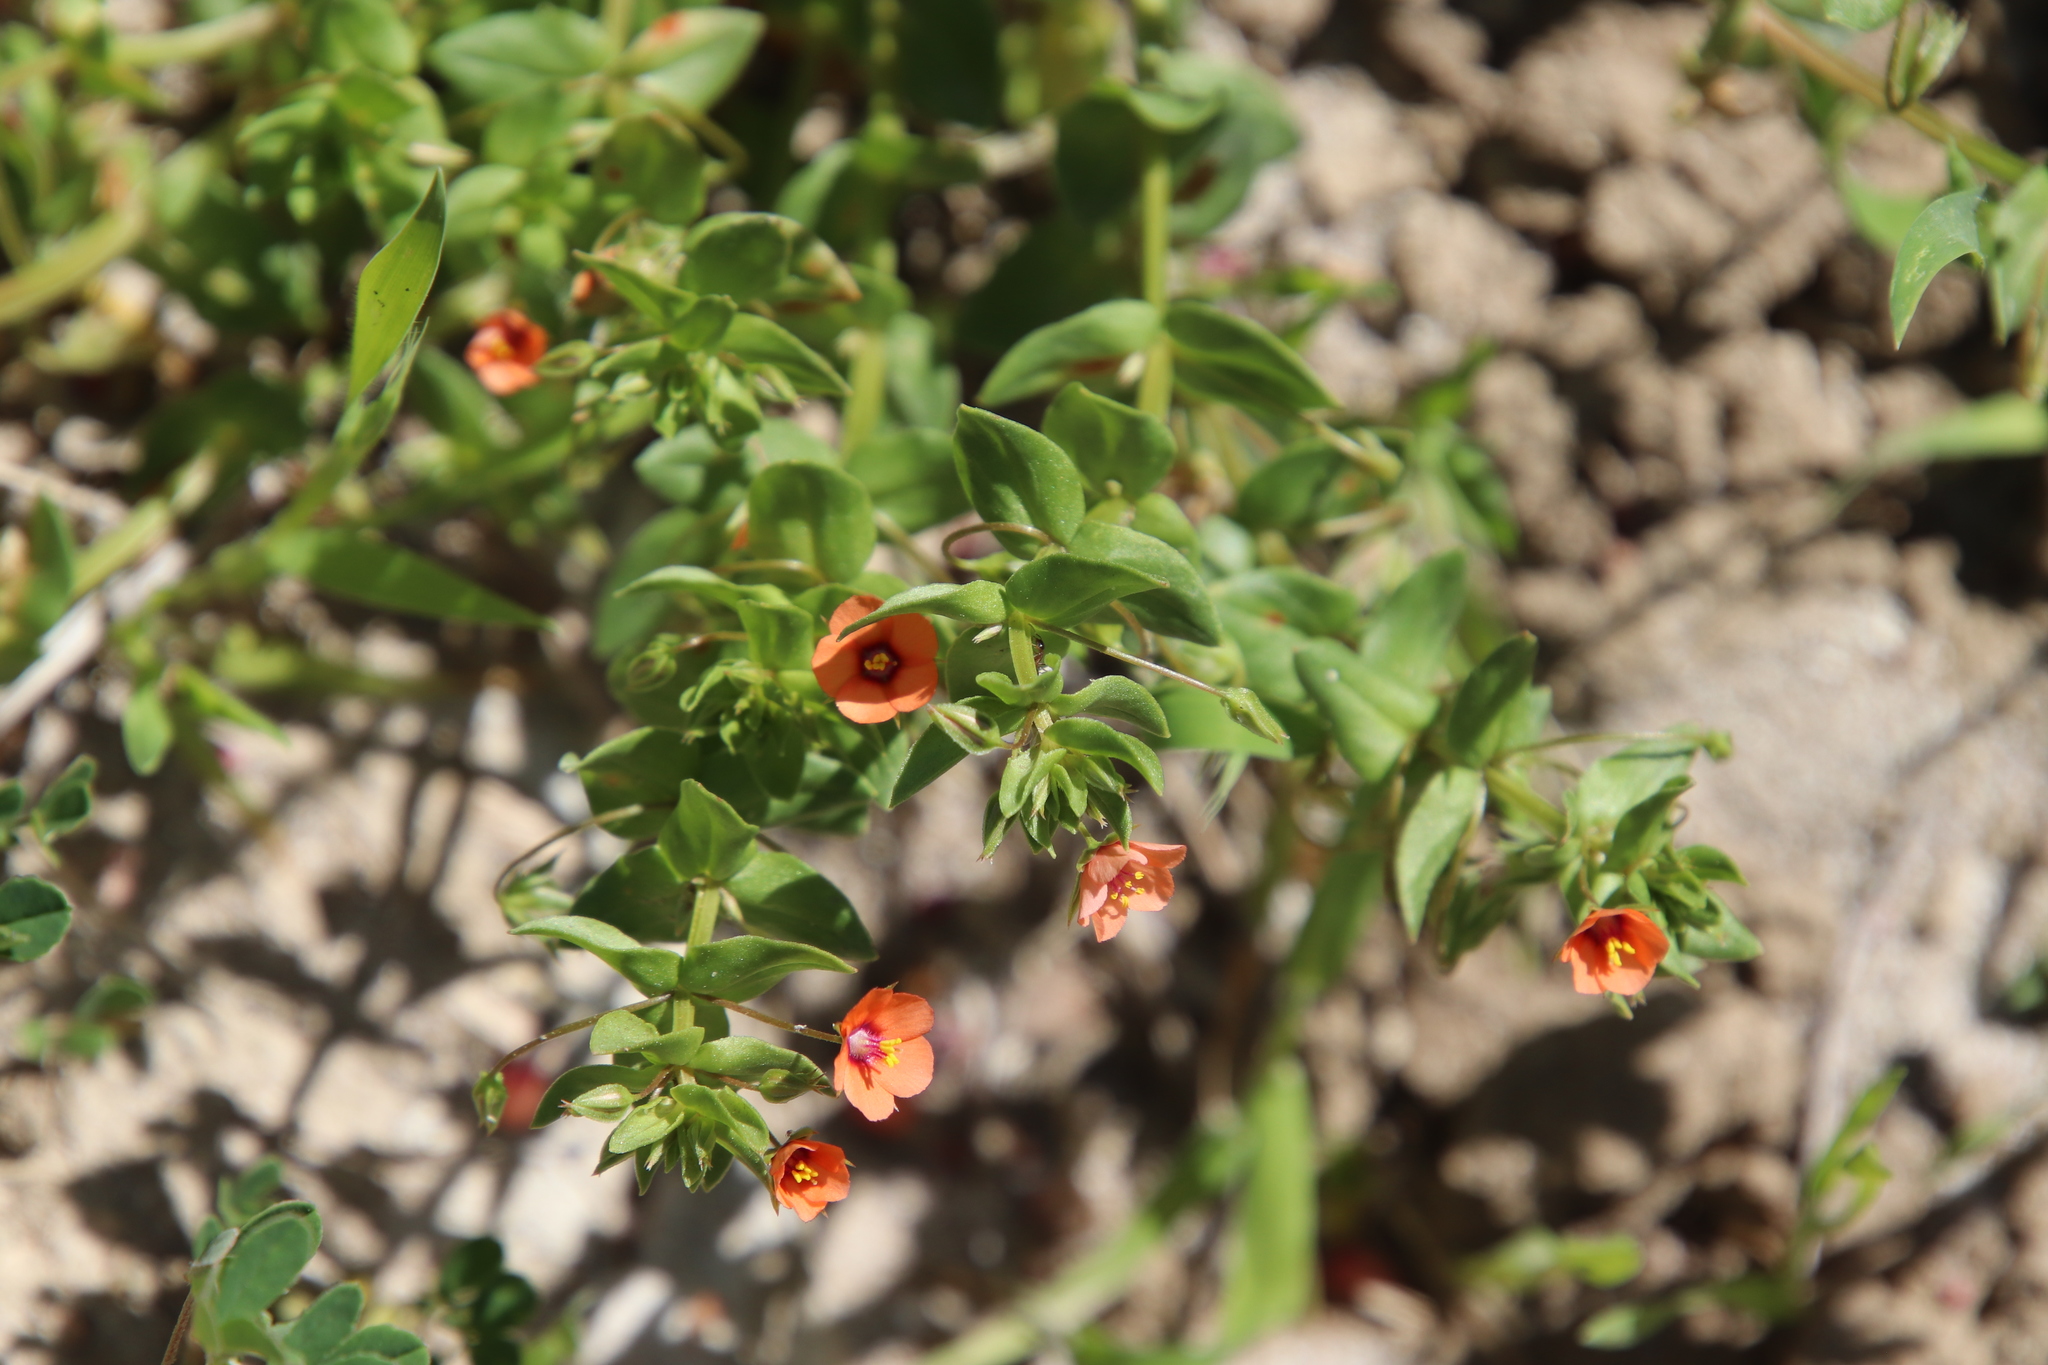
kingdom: Plantae
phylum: Tracheophyta
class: Magnoliopsida
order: Ericales
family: Primulaceae
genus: Lysimachia
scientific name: Lysimachia arvensis
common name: Scarlet pimpernel
